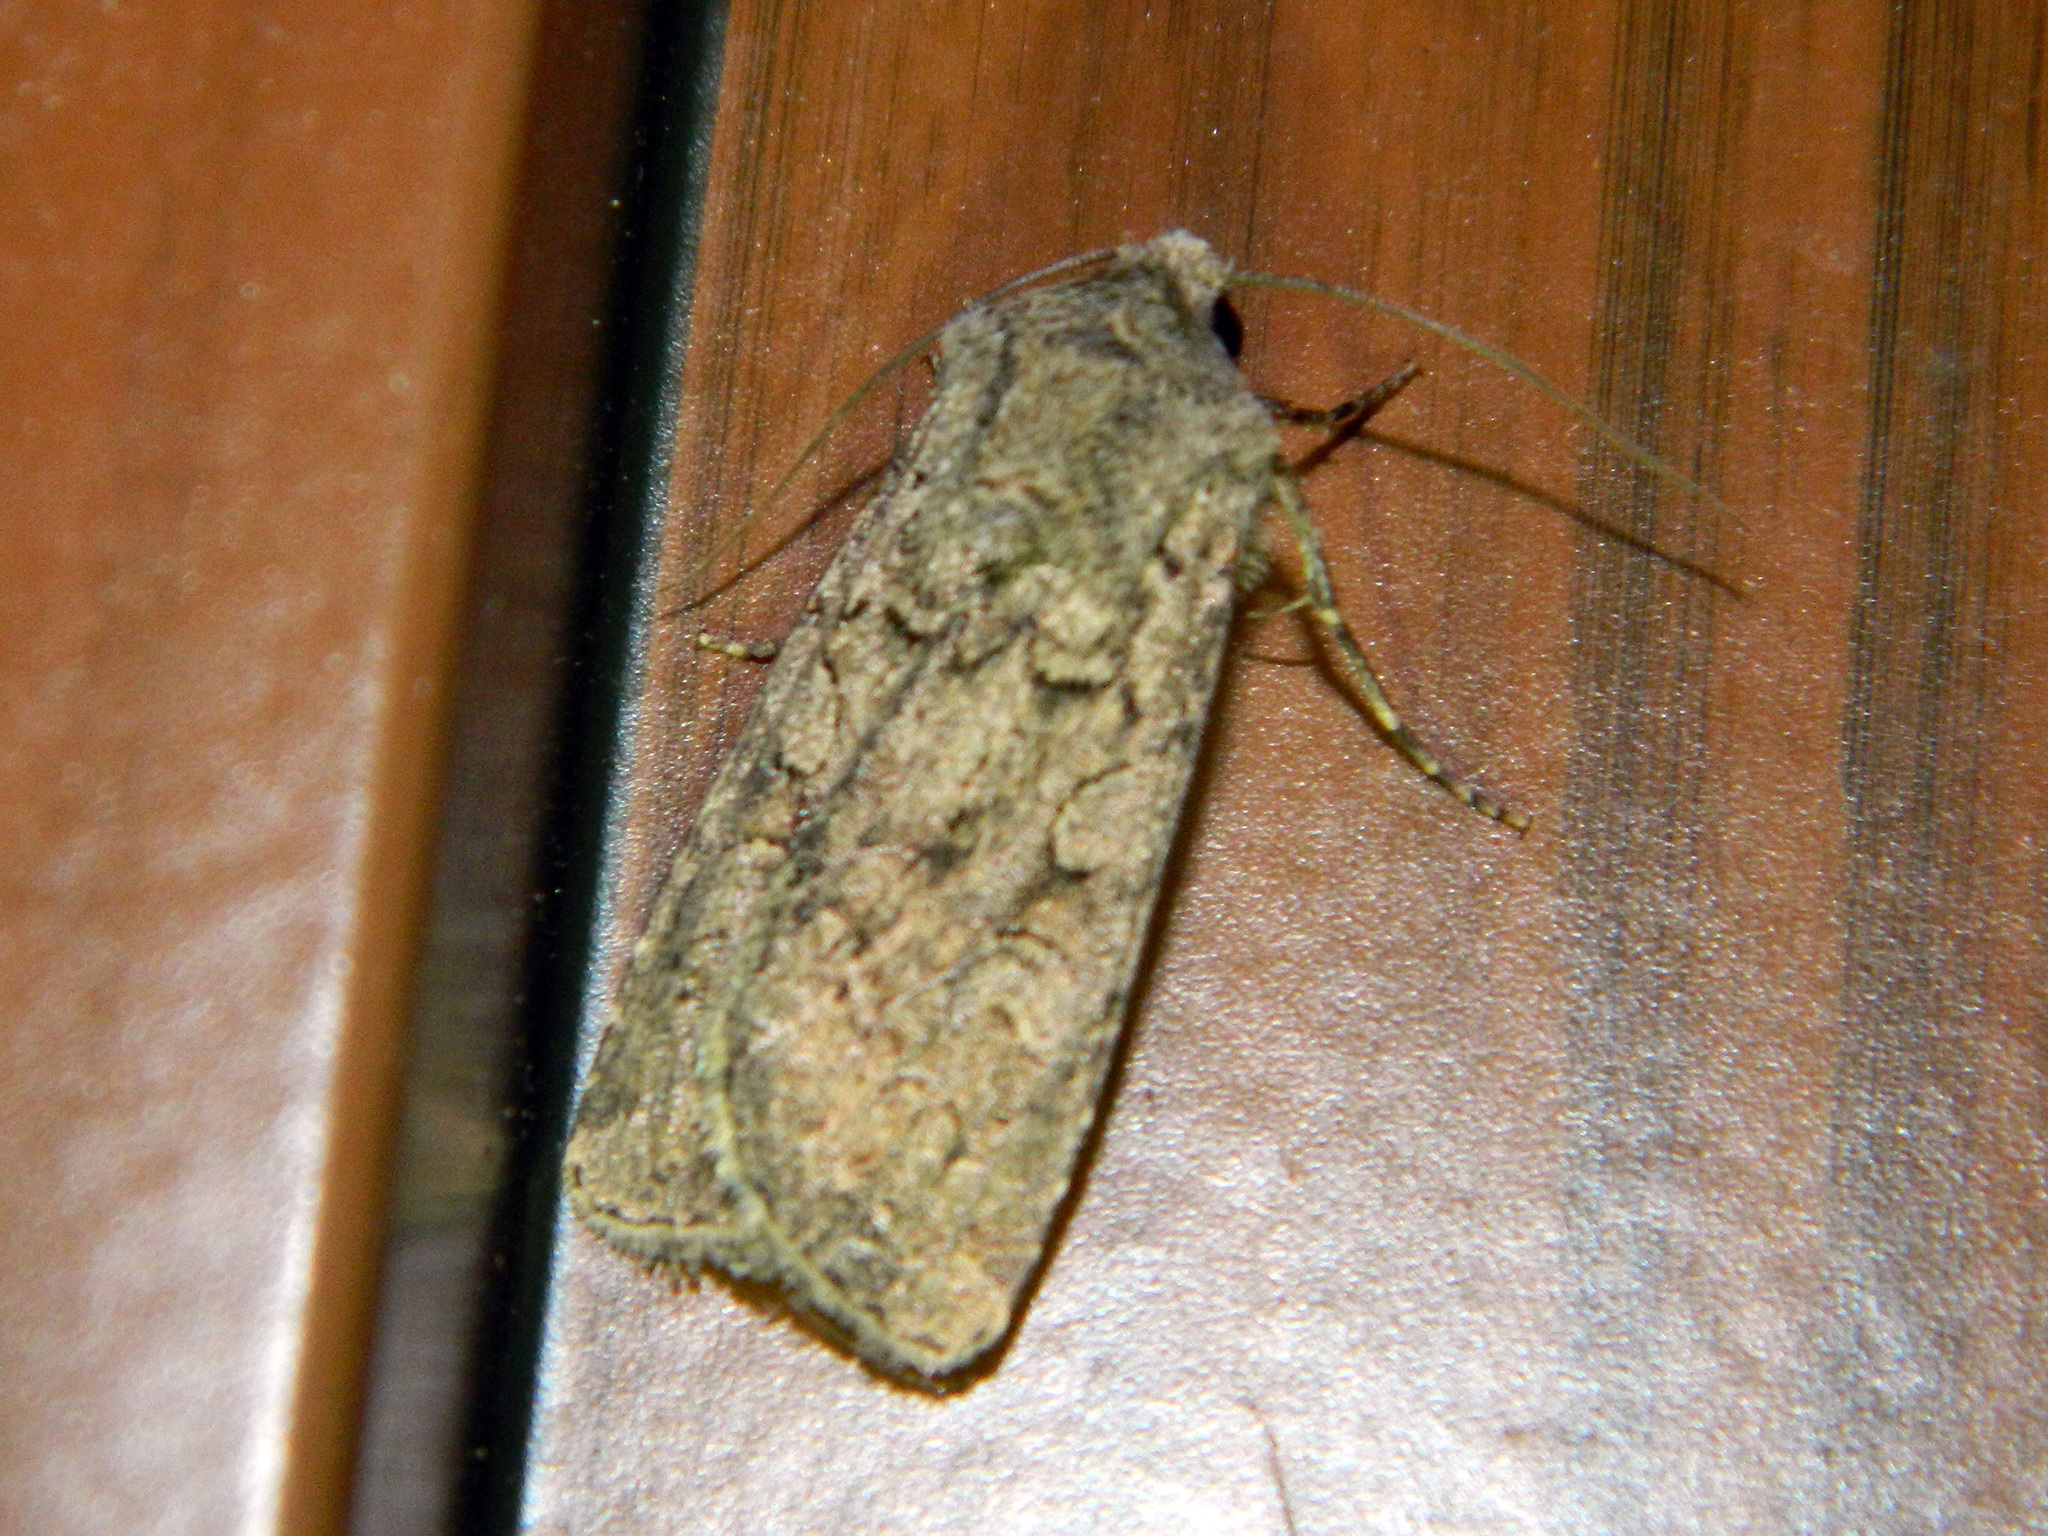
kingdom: Animalia
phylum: Arthropoda
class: Insecta
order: Lepidoptera
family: Noctuidae
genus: Euxoa
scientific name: Euxoa messoria
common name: Darksided cutworm
